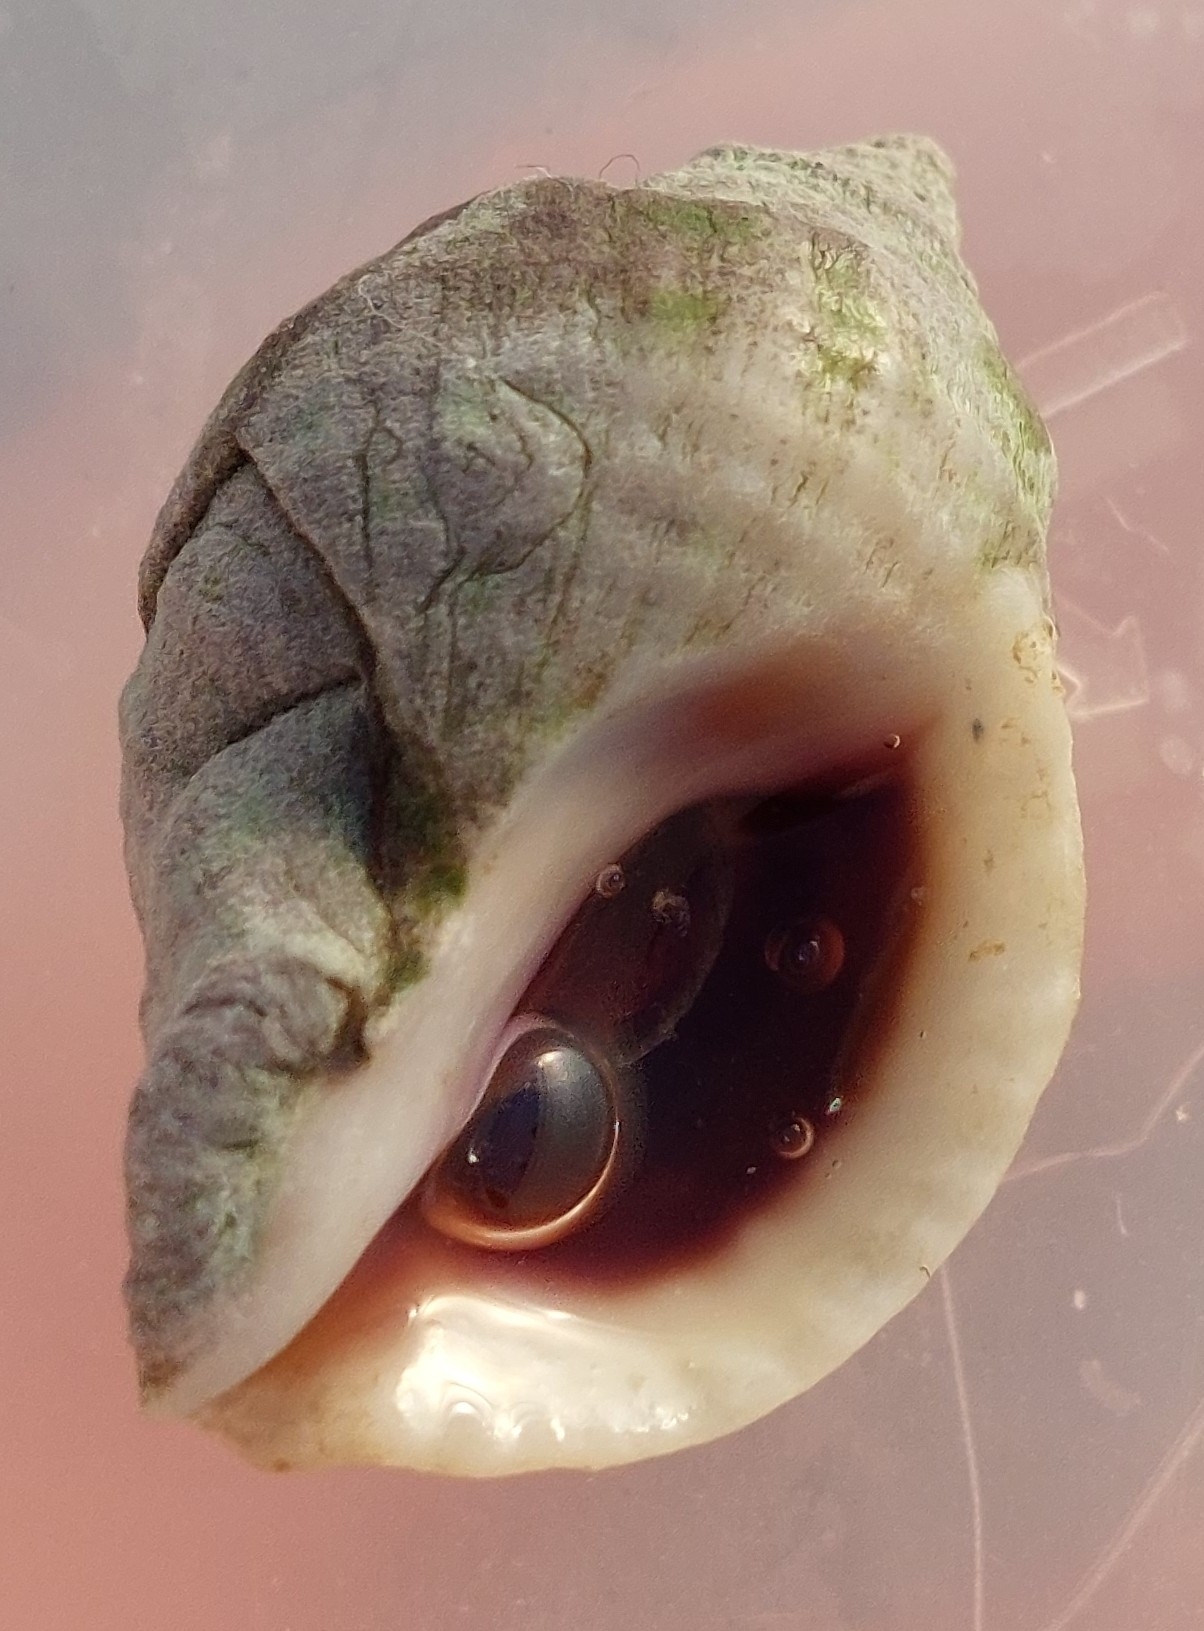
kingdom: Animalia
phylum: Mollusca
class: Gastropoda
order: Neogastropoda
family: Muricidae
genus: Nucella
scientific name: Nucella lapillus
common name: Dog whelk
